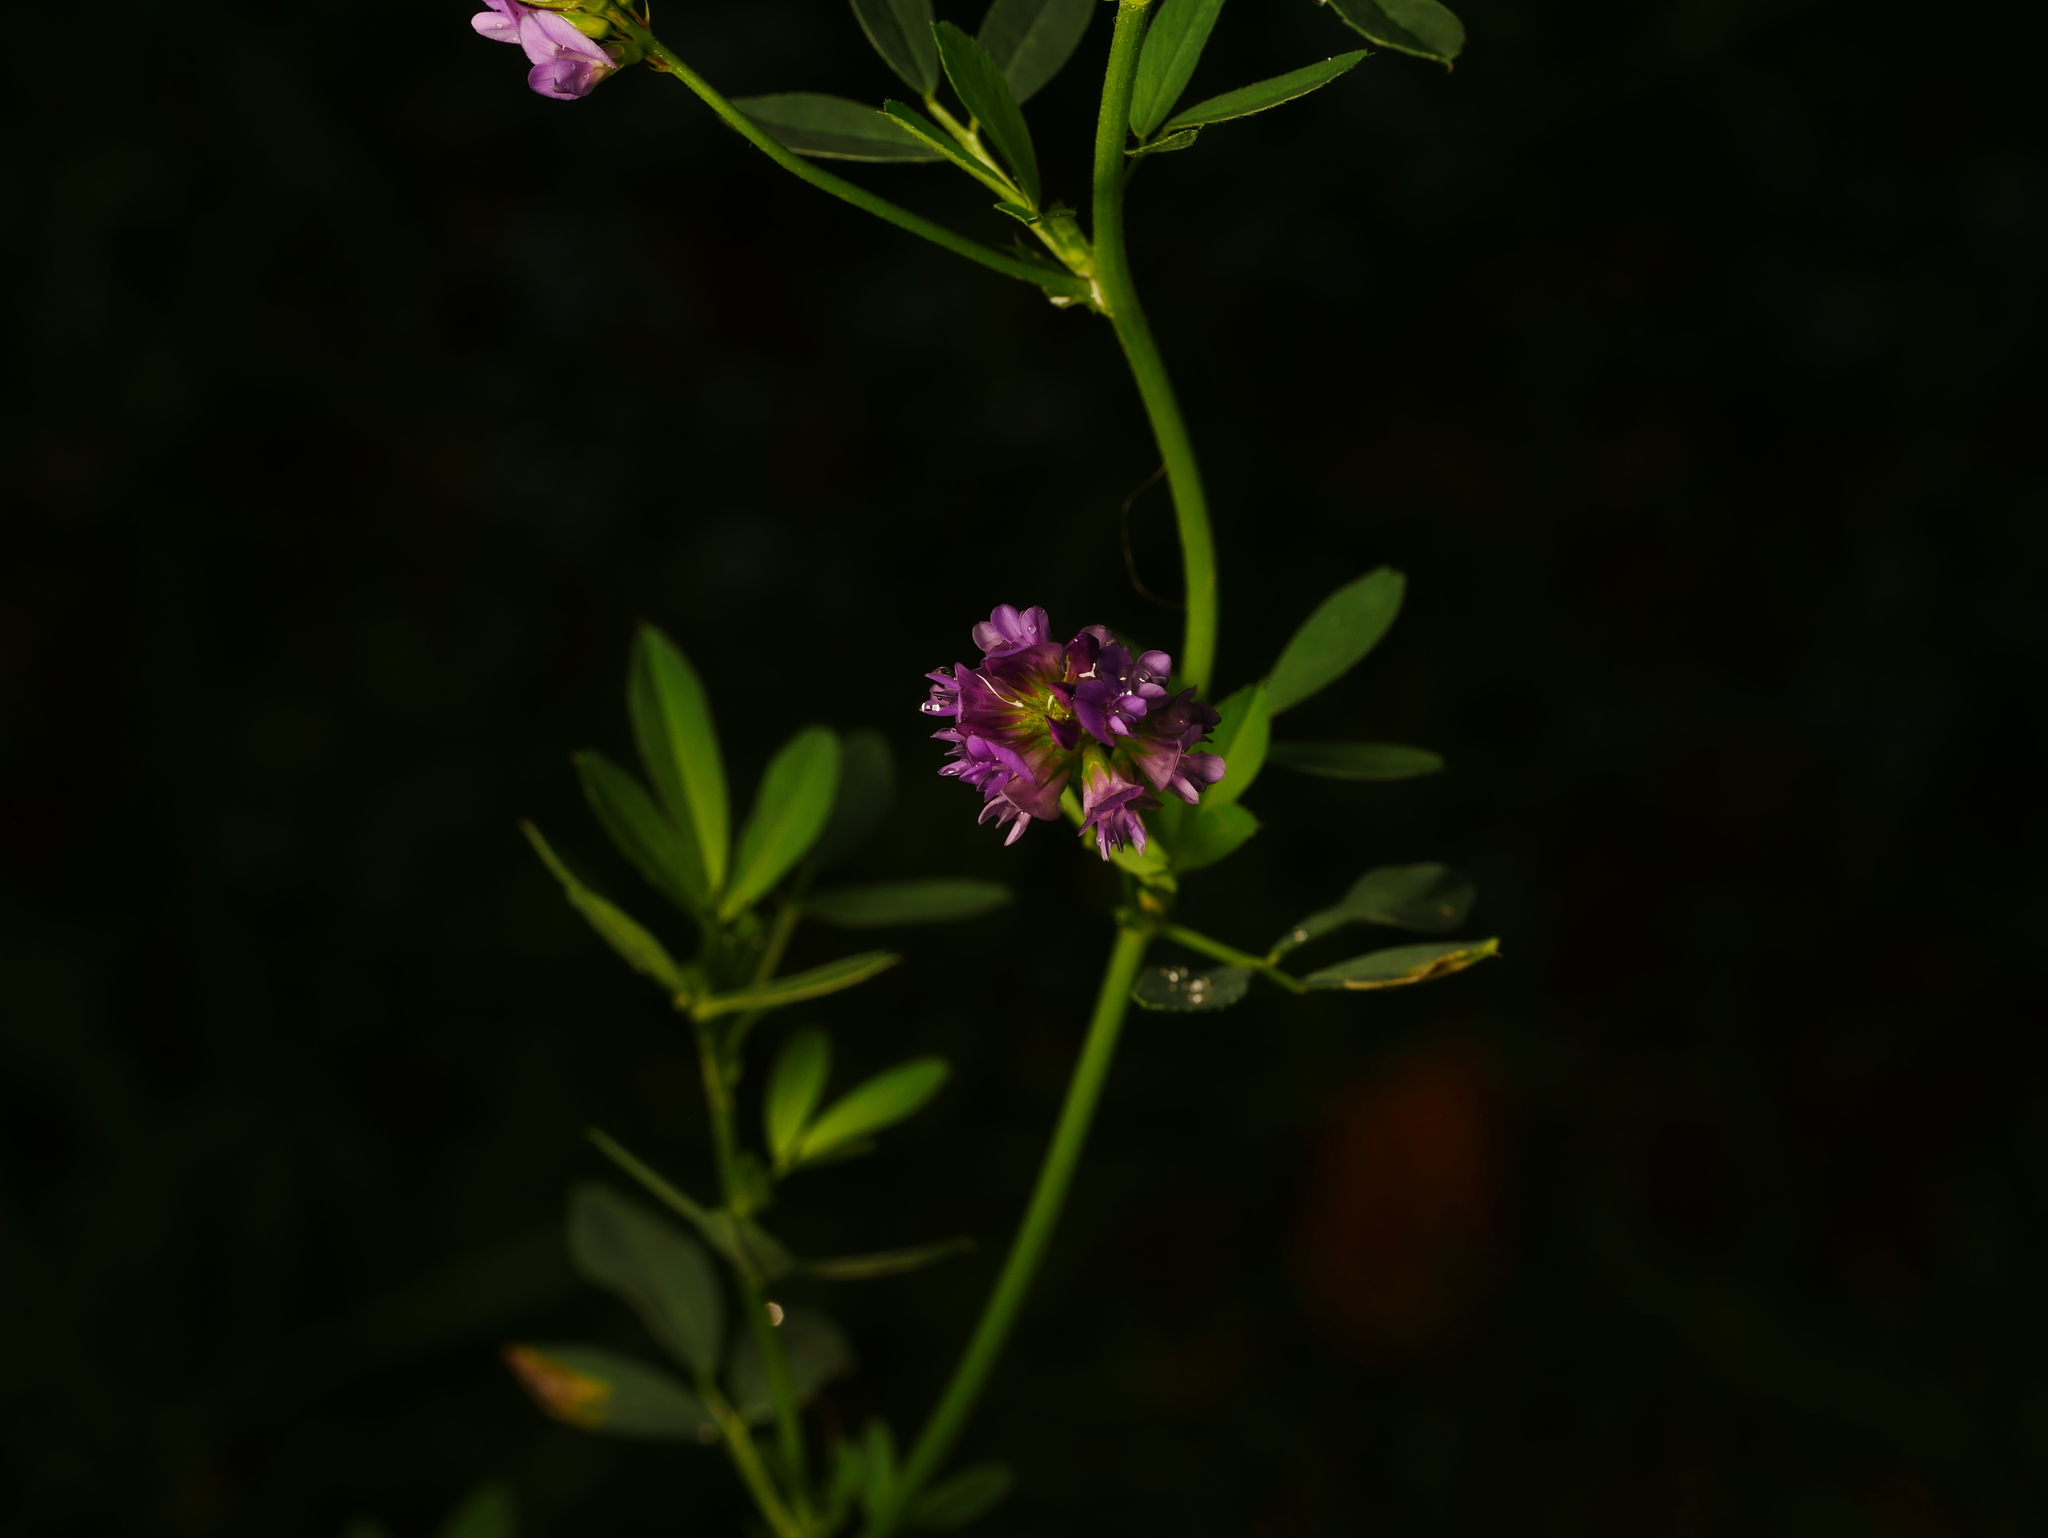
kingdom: Plantae
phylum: Tracheophyta
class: Magnoliopsida
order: Fabales
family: Fabaceae
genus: Medicago
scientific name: Medicago sativa
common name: Alfalfa
